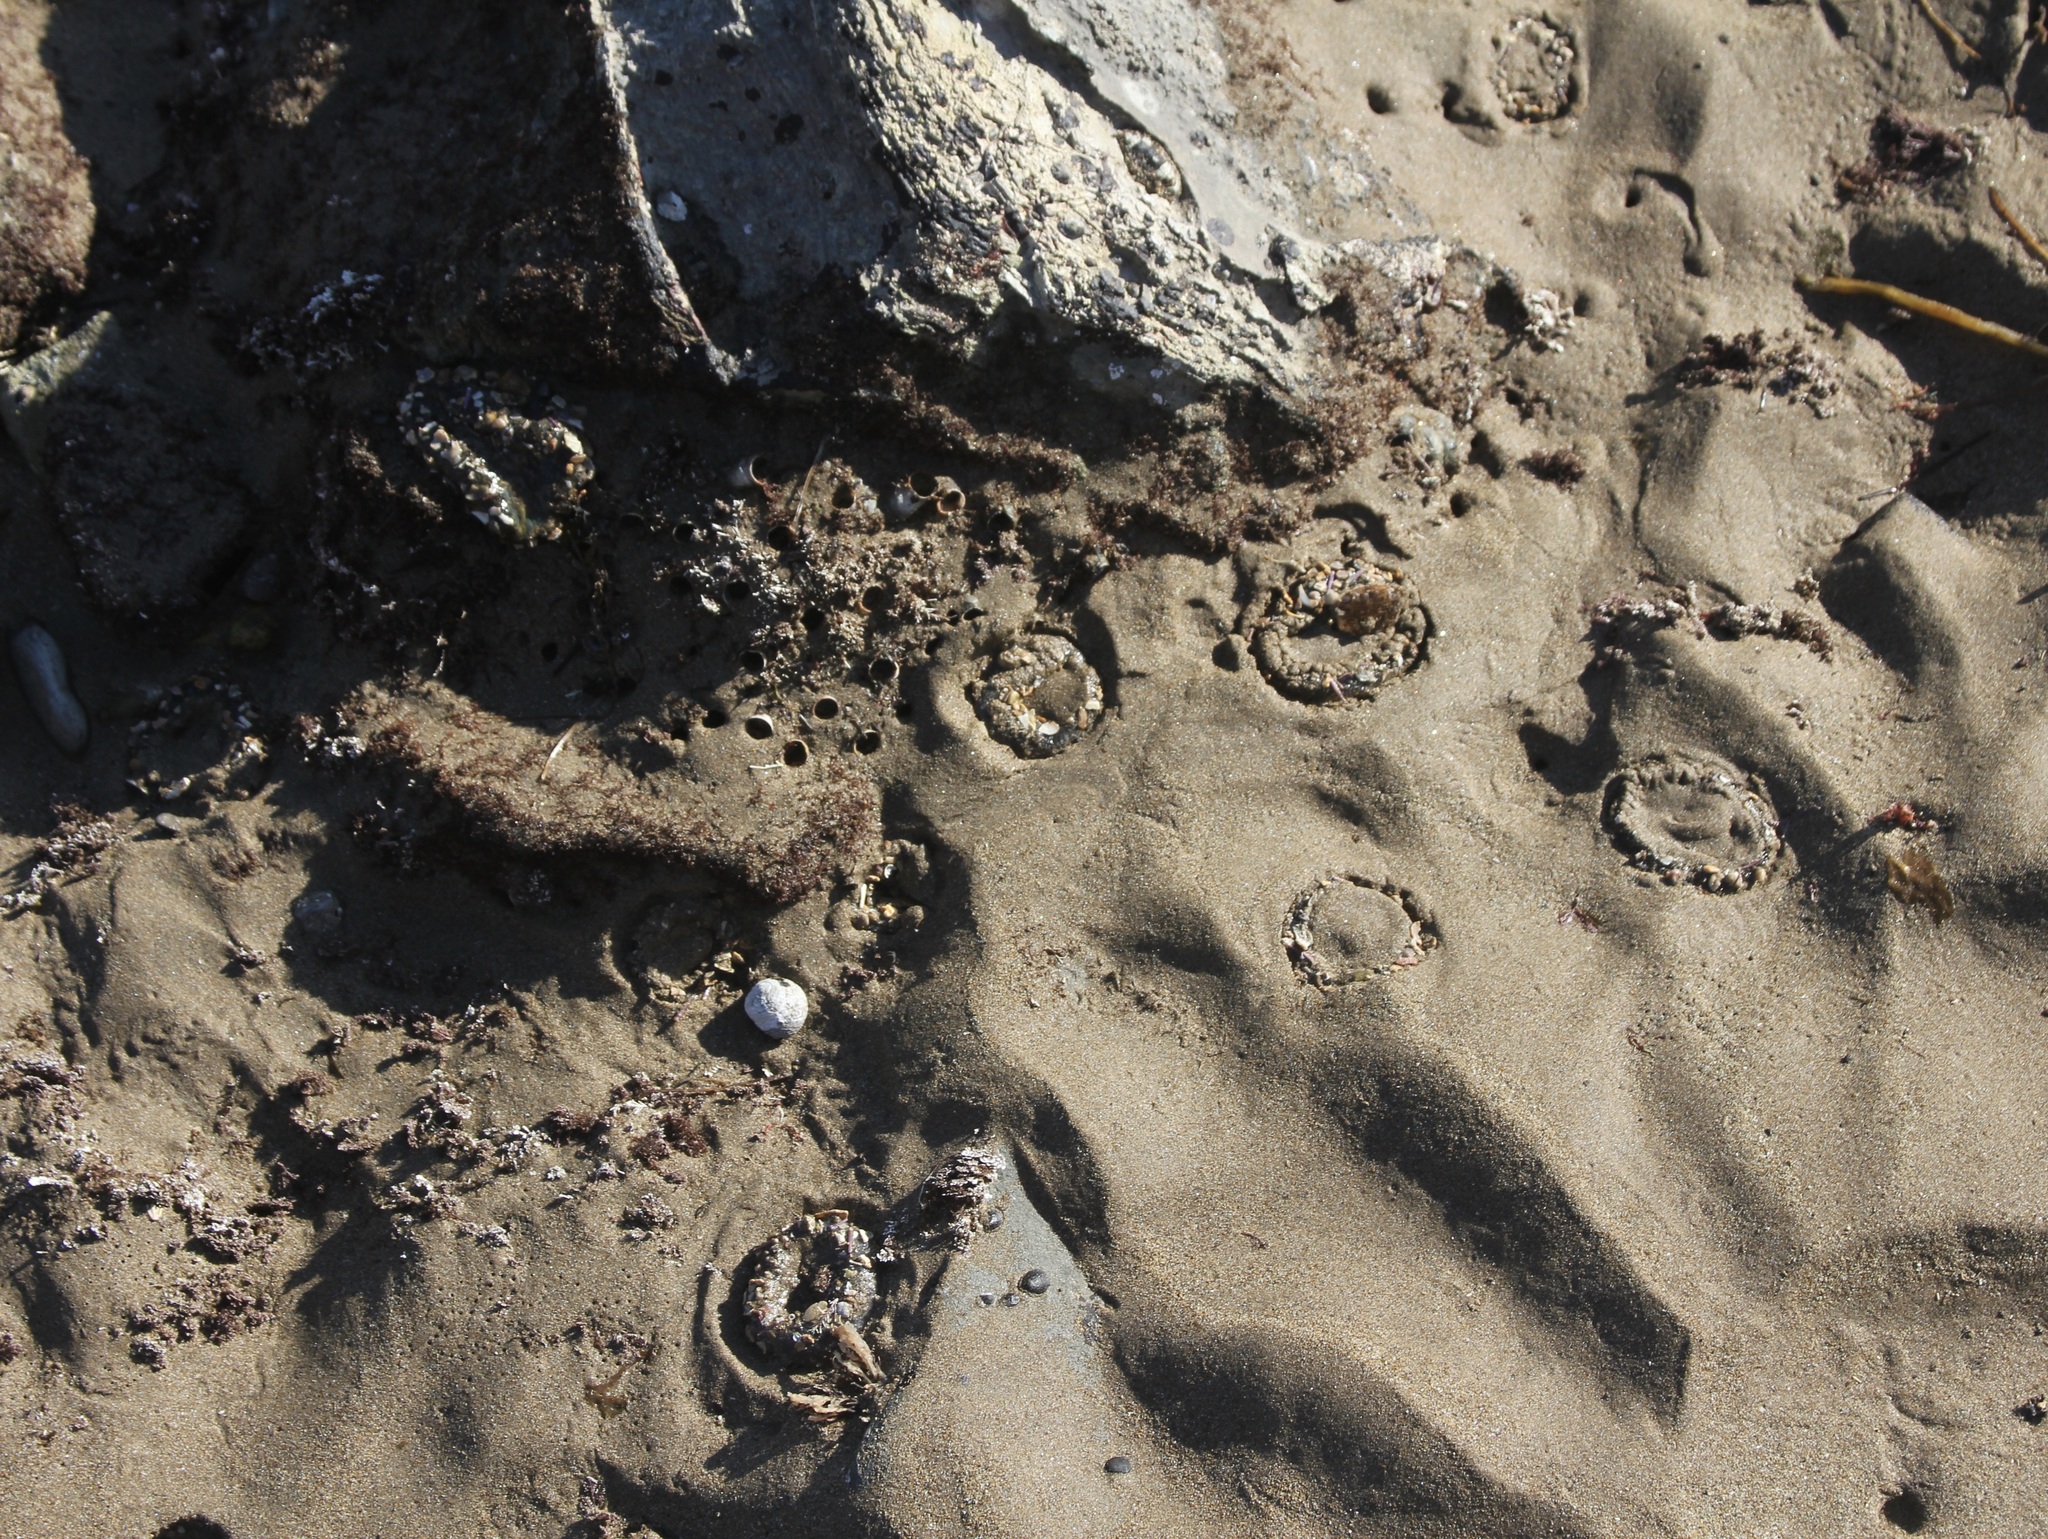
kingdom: Animalia
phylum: Cnidaria
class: Anthozoa
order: Actiniaria
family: Actiniidae
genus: Anthopleura
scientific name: Anthopleura elegantissima
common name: Clonal anemone
